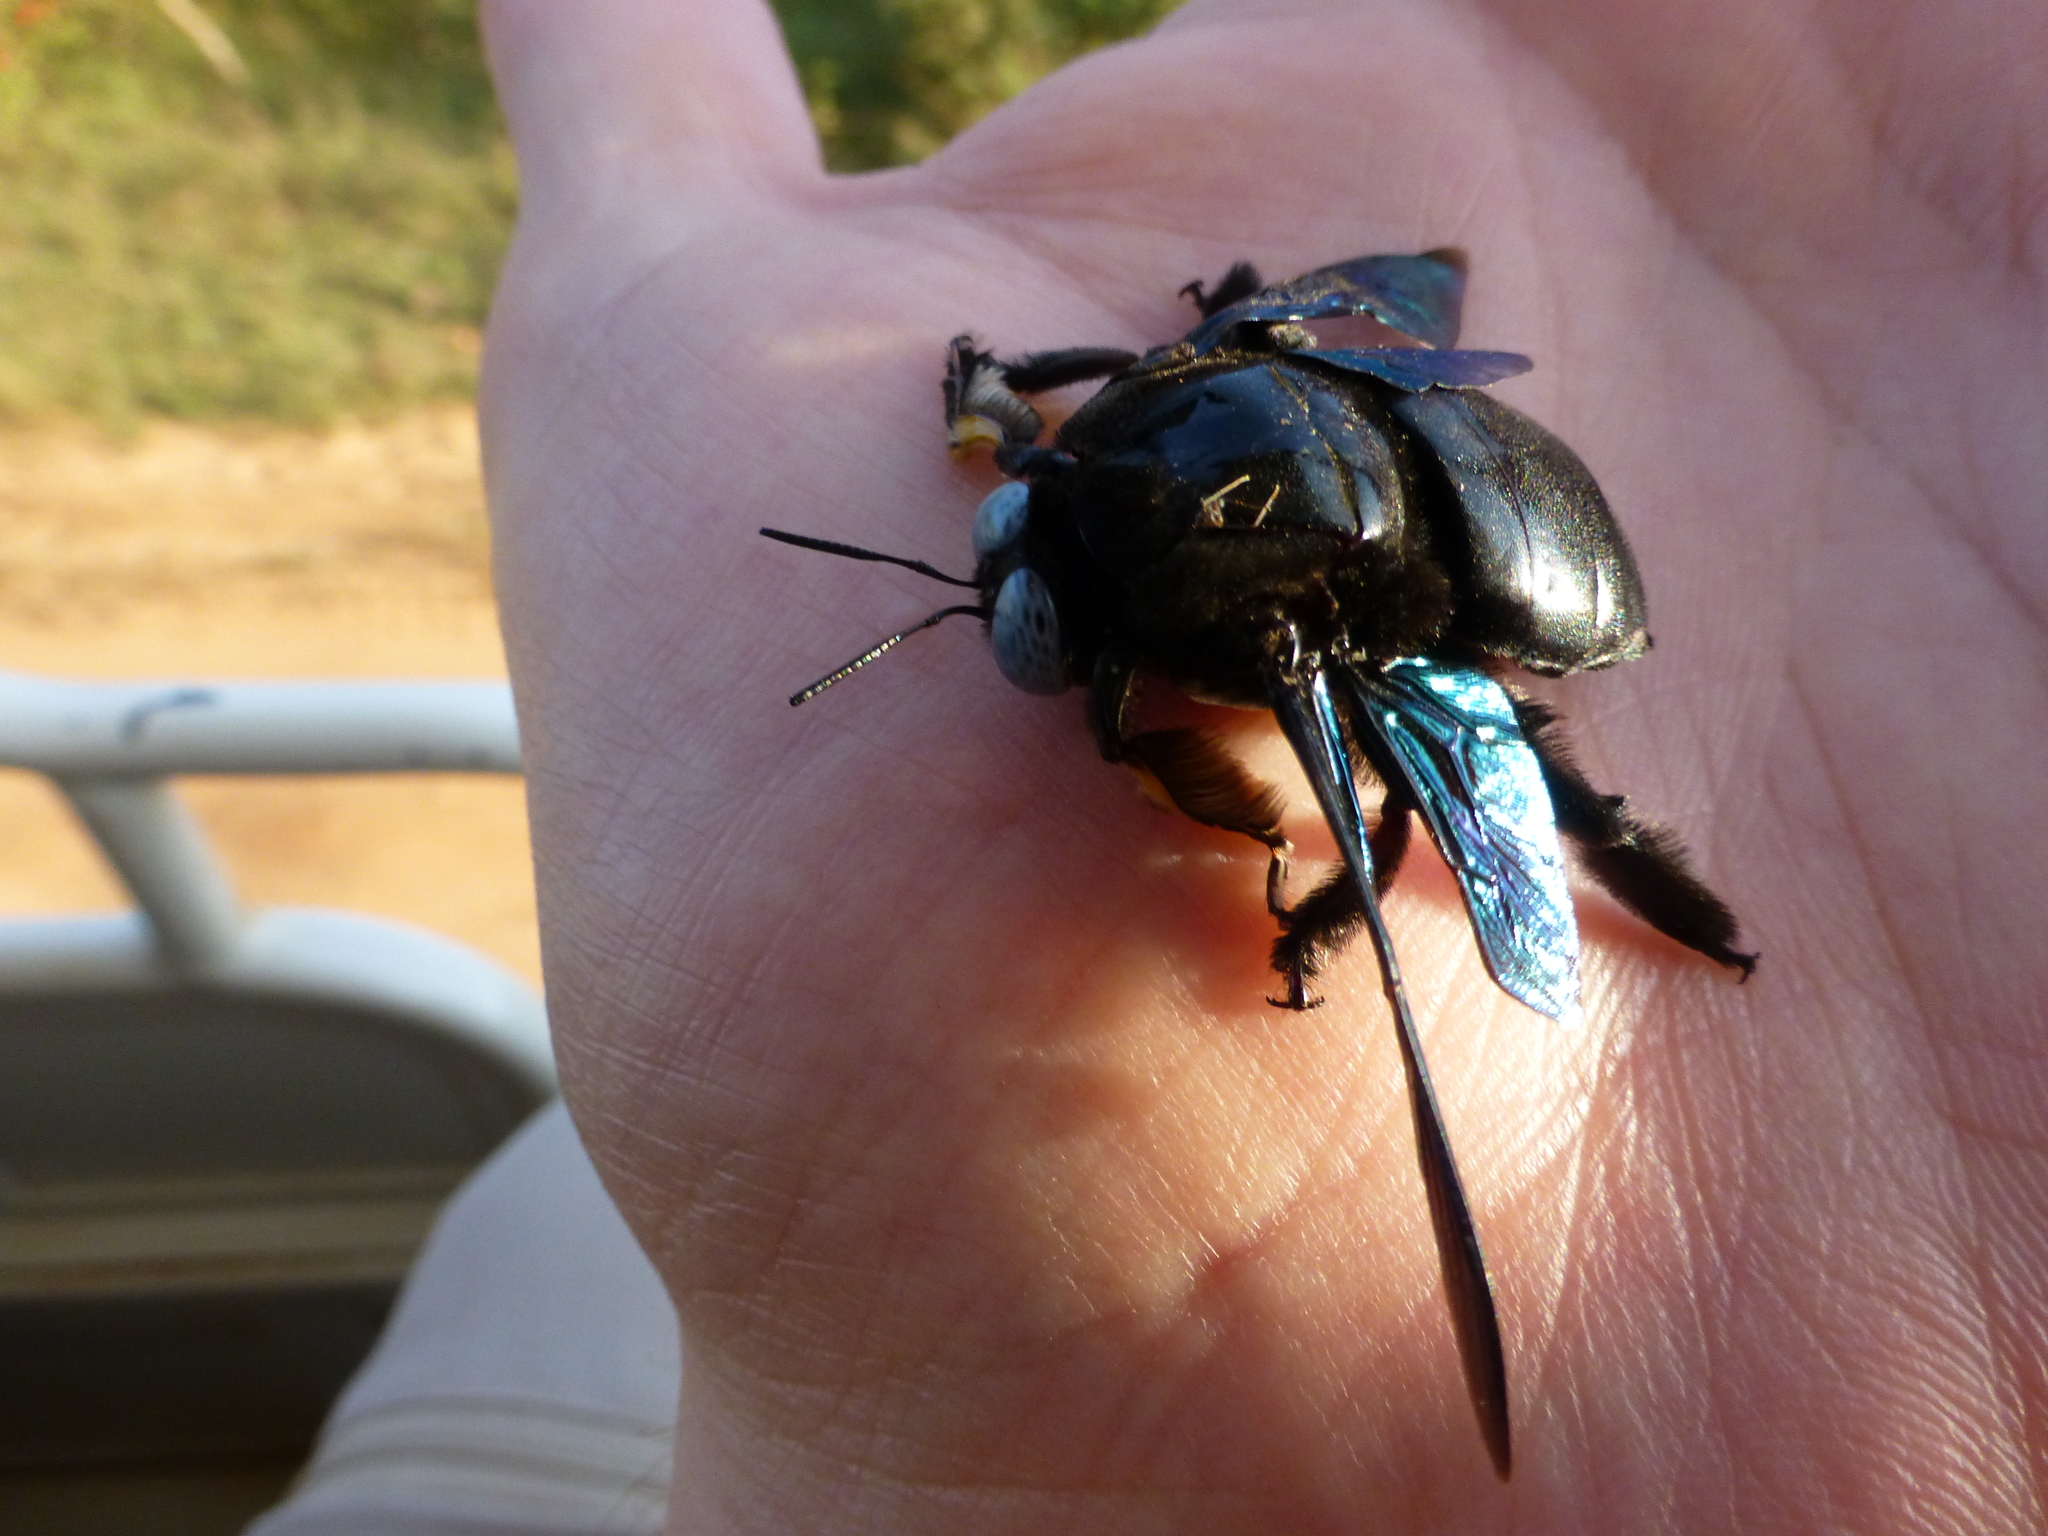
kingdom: Animalia
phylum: Arthropoda
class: Insecta
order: Hymenoptera
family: Apidae
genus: Xylocopa
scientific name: Xylocopa tenuiscapa
